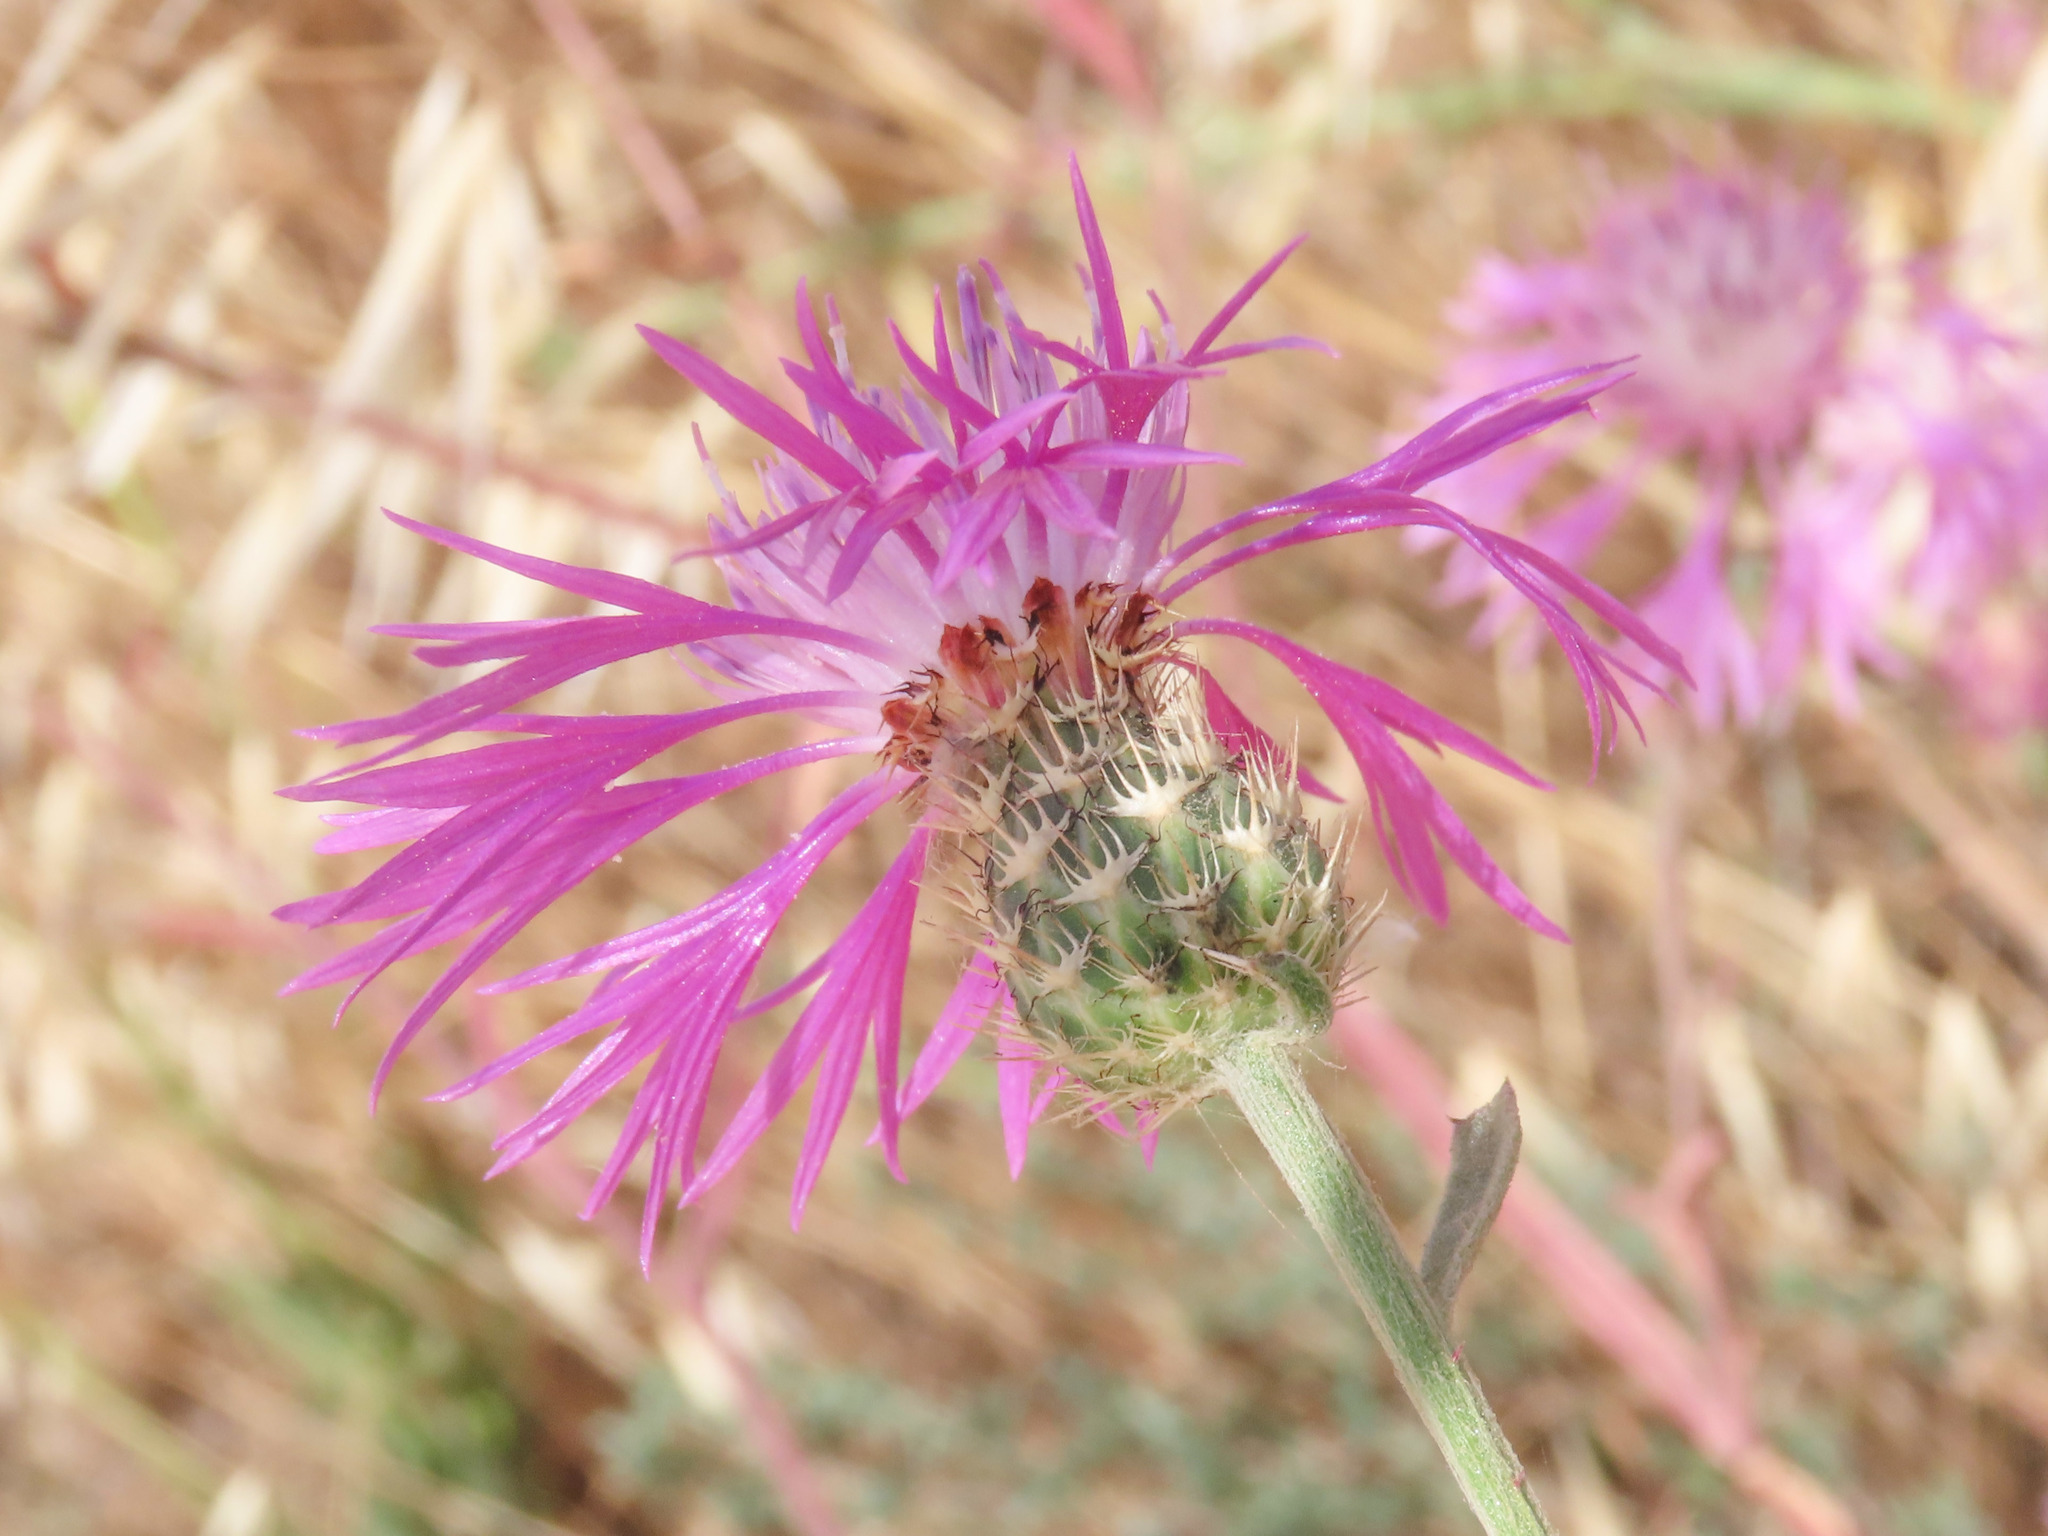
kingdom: Plantae
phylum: Tracheophyta
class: Magnoliopsida
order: Asterales
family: Asteraceae
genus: Centaurea
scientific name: Centaurea napifolia
